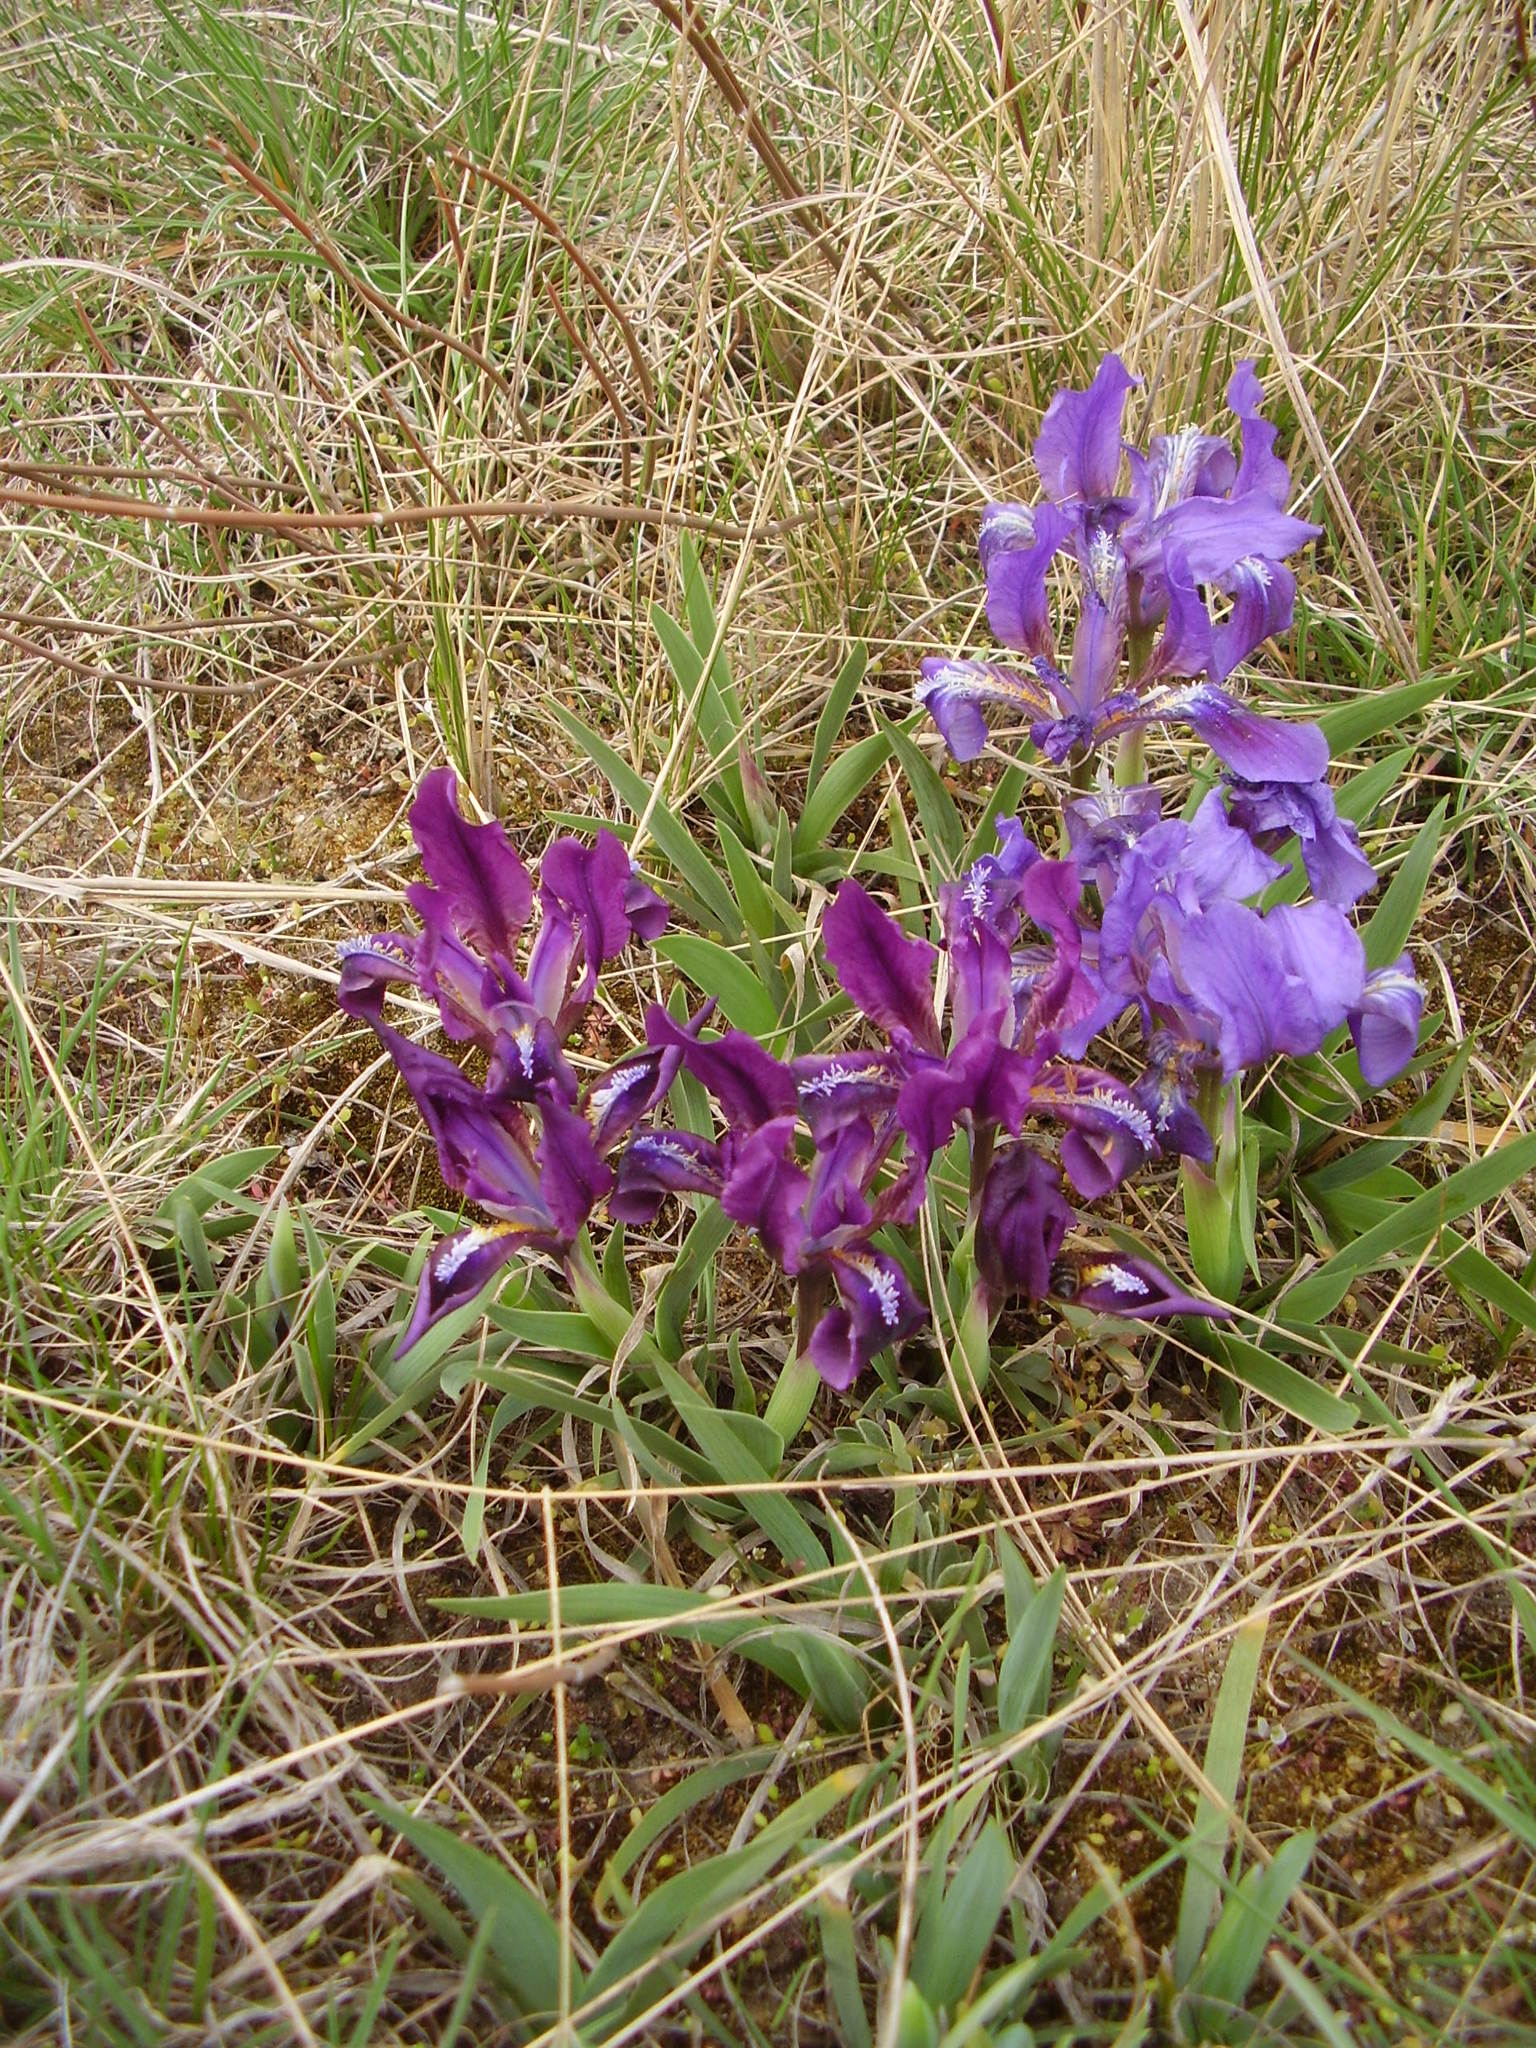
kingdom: Plantae
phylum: Tracheophyta
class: Liliopsida
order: Asparagales
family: Iridaceae
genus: Iris
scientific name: Iris pumila
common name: Dwarf iris
